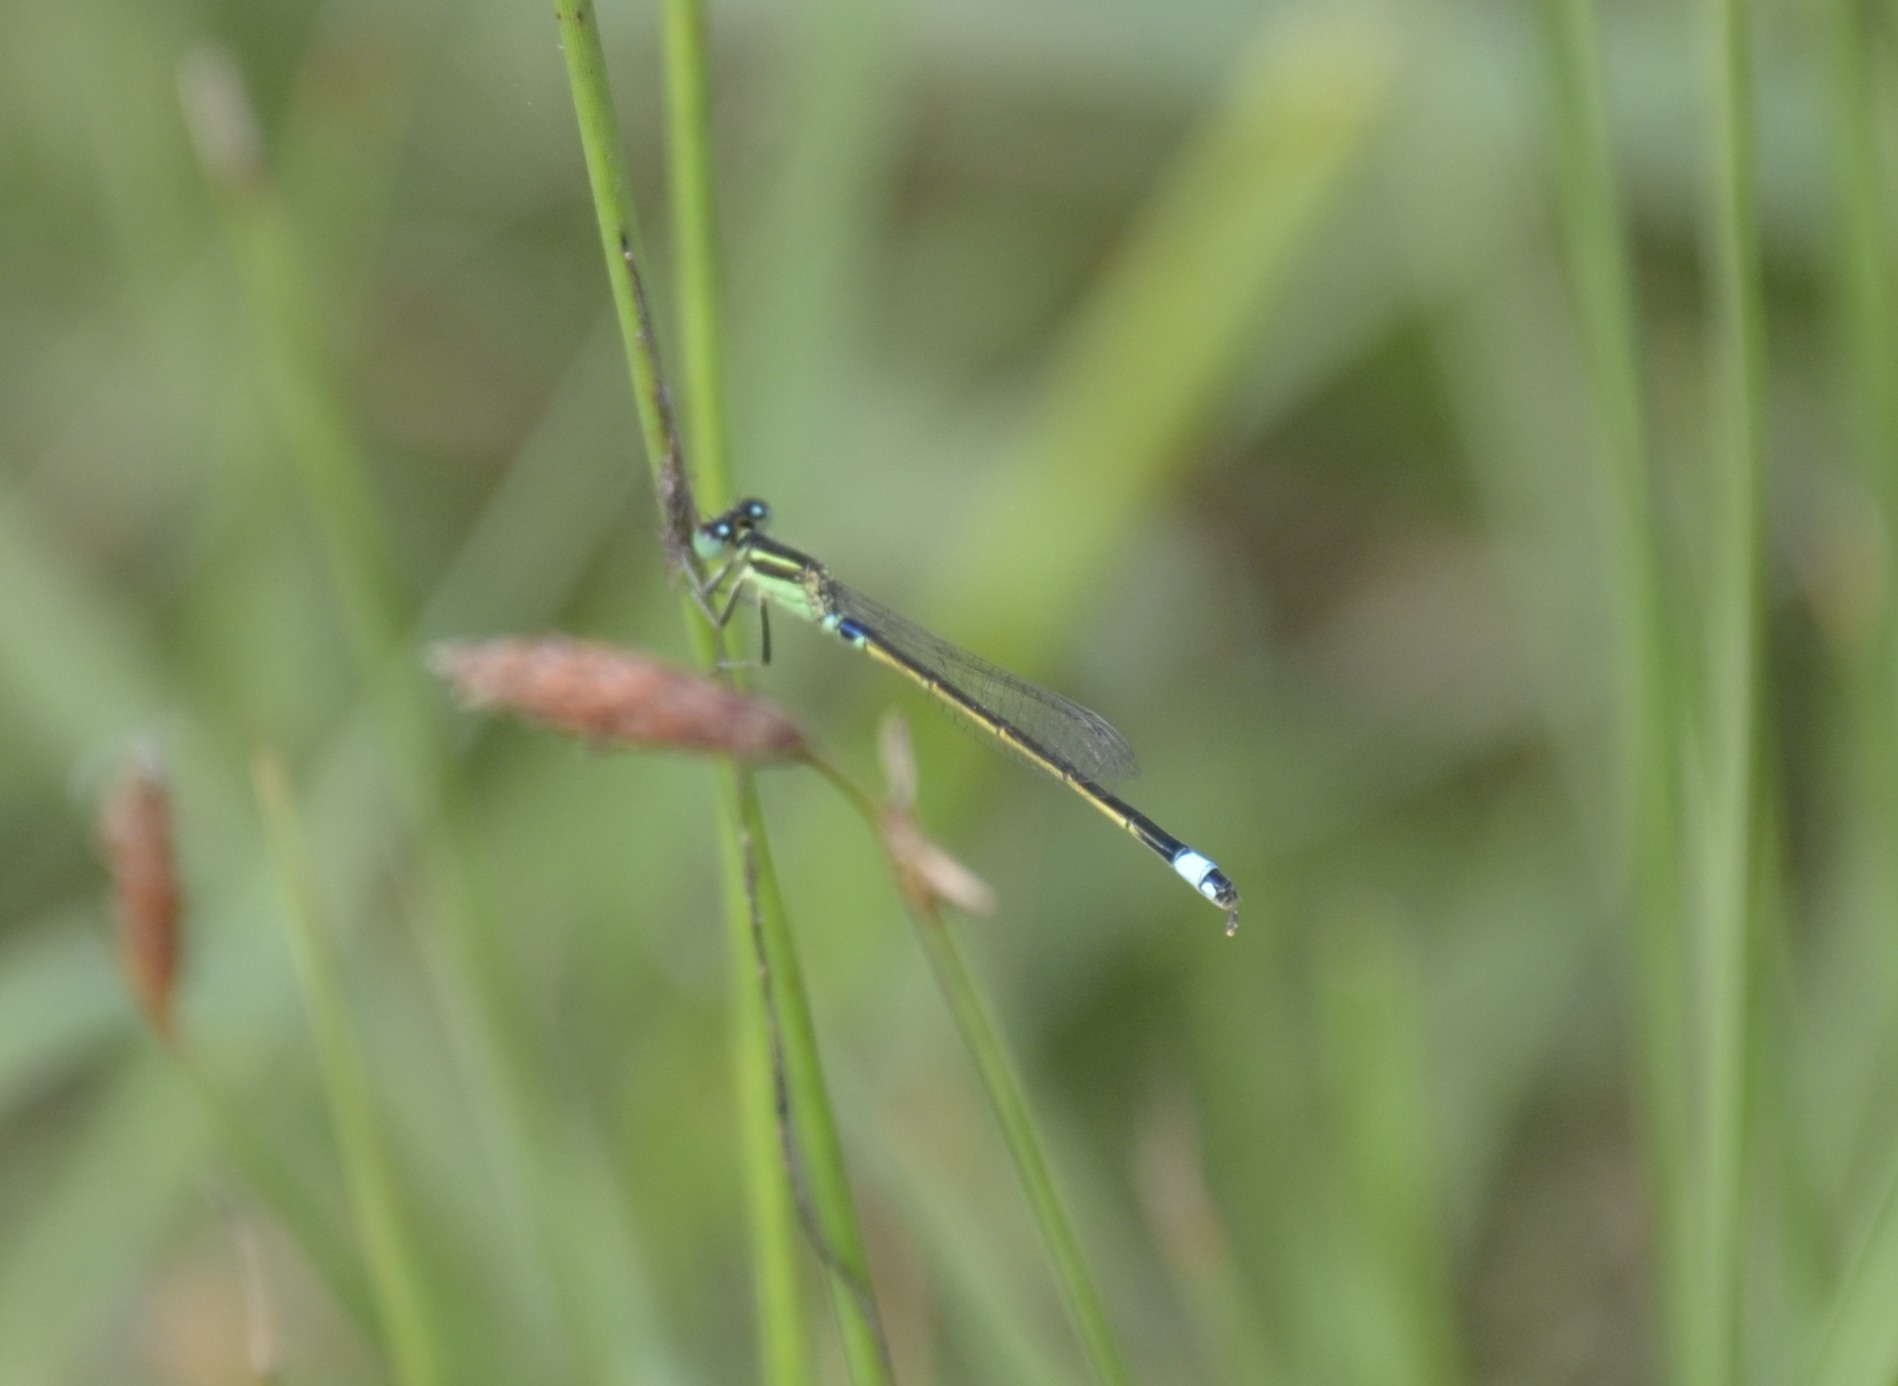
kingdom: Animalia
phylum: Arthropoda
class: Insecta
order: Odonata
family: Coenagrionidae
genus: Ischnura
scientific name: Ischnura senegalensis
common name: Tropical bluetail
